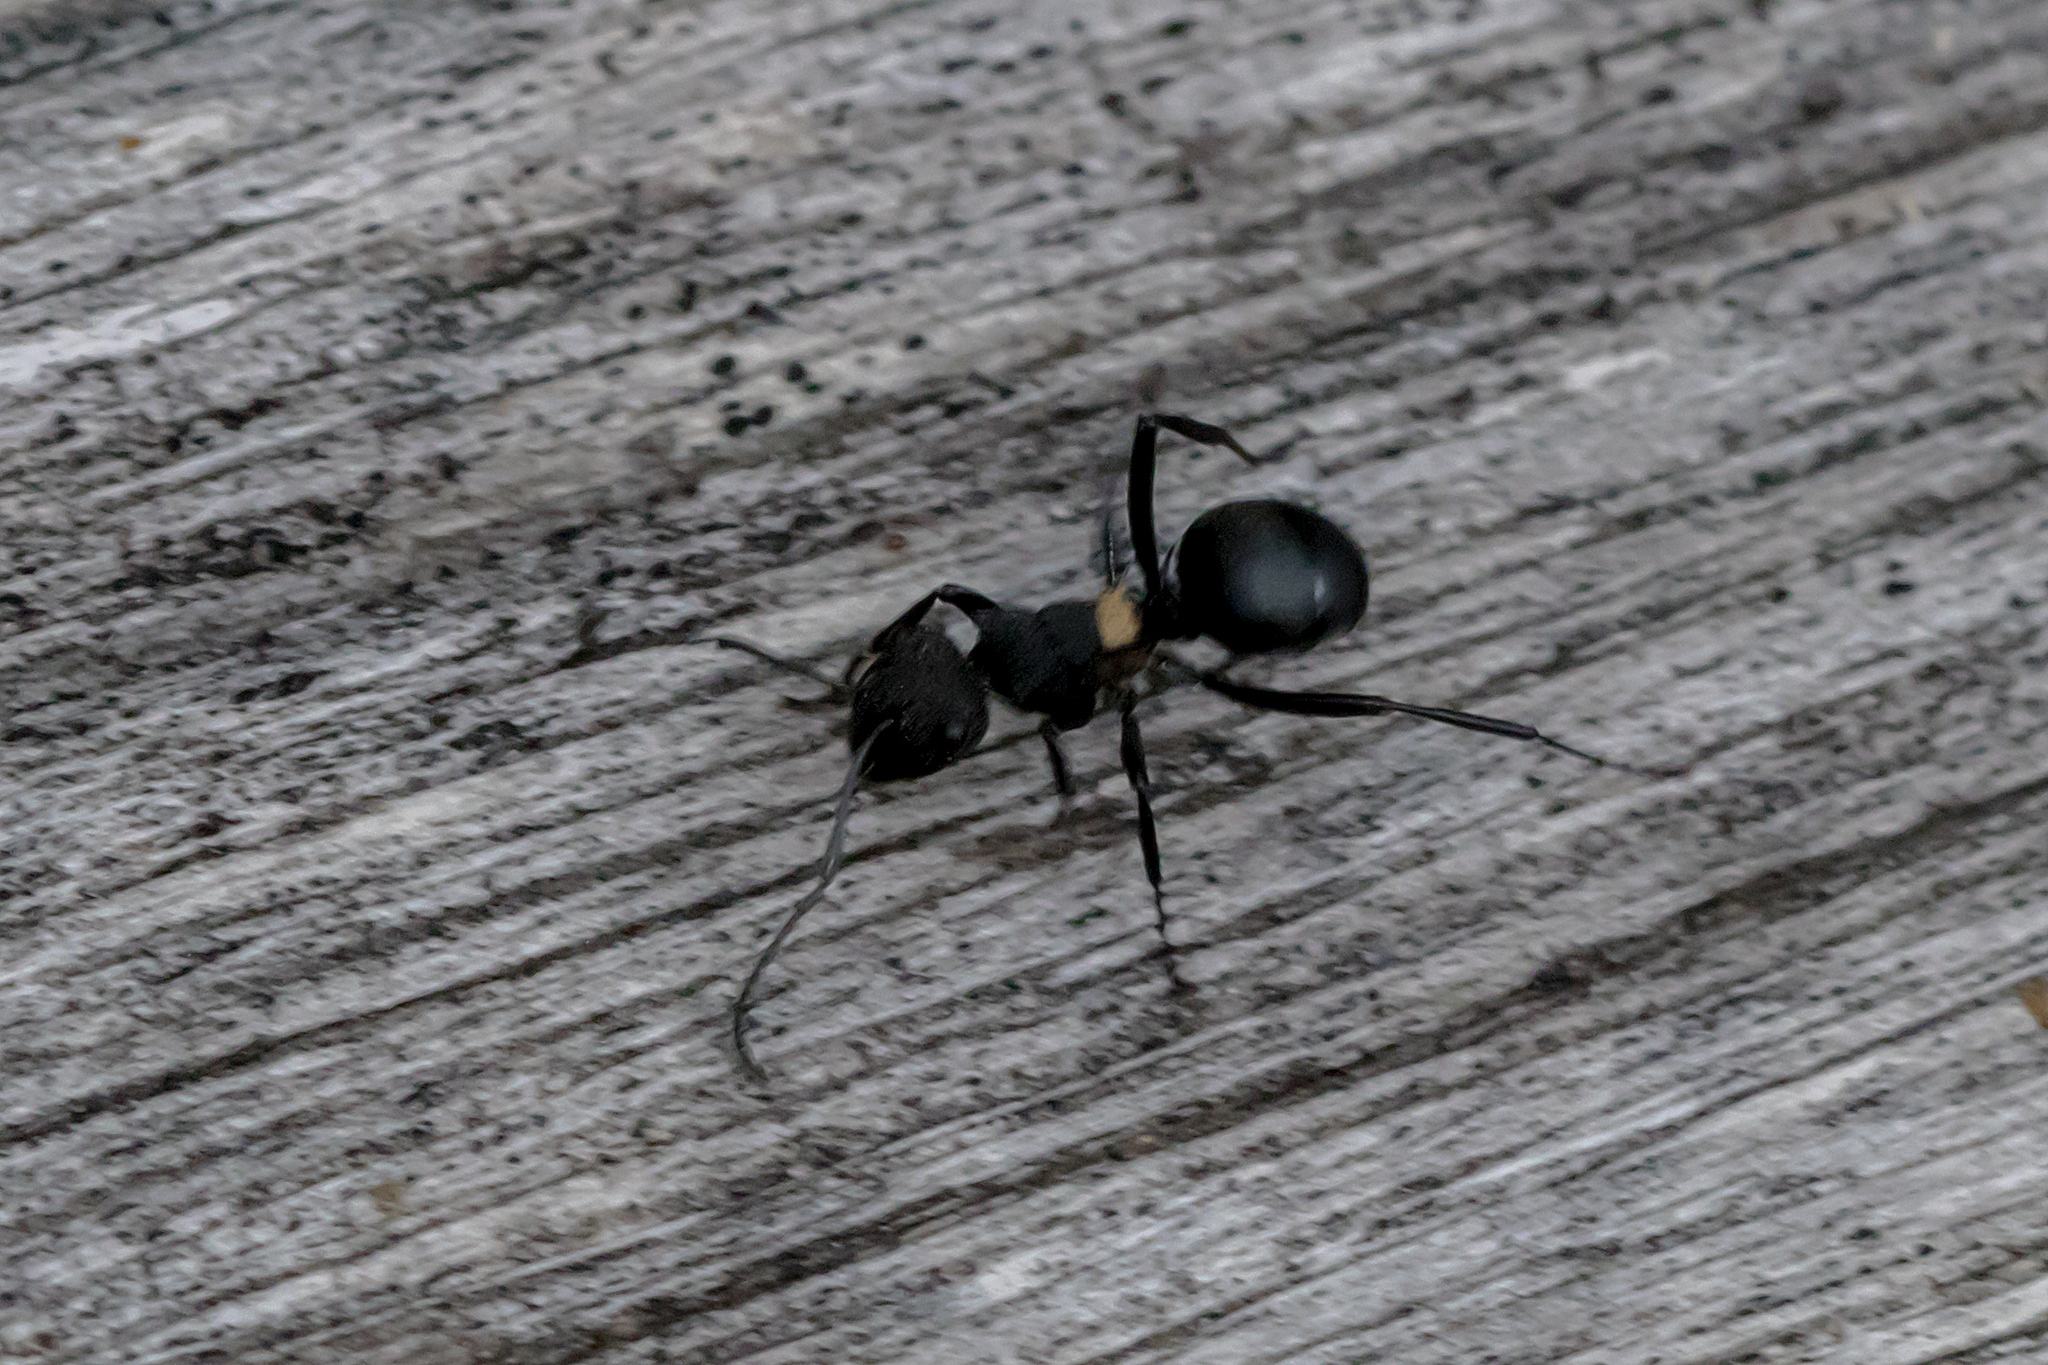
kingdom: Animalia
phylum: Arthropoda
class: Insecta
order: Hymenoptera
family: Formicidae
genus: Polyrhachis
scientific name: Polyrhachis machaon
